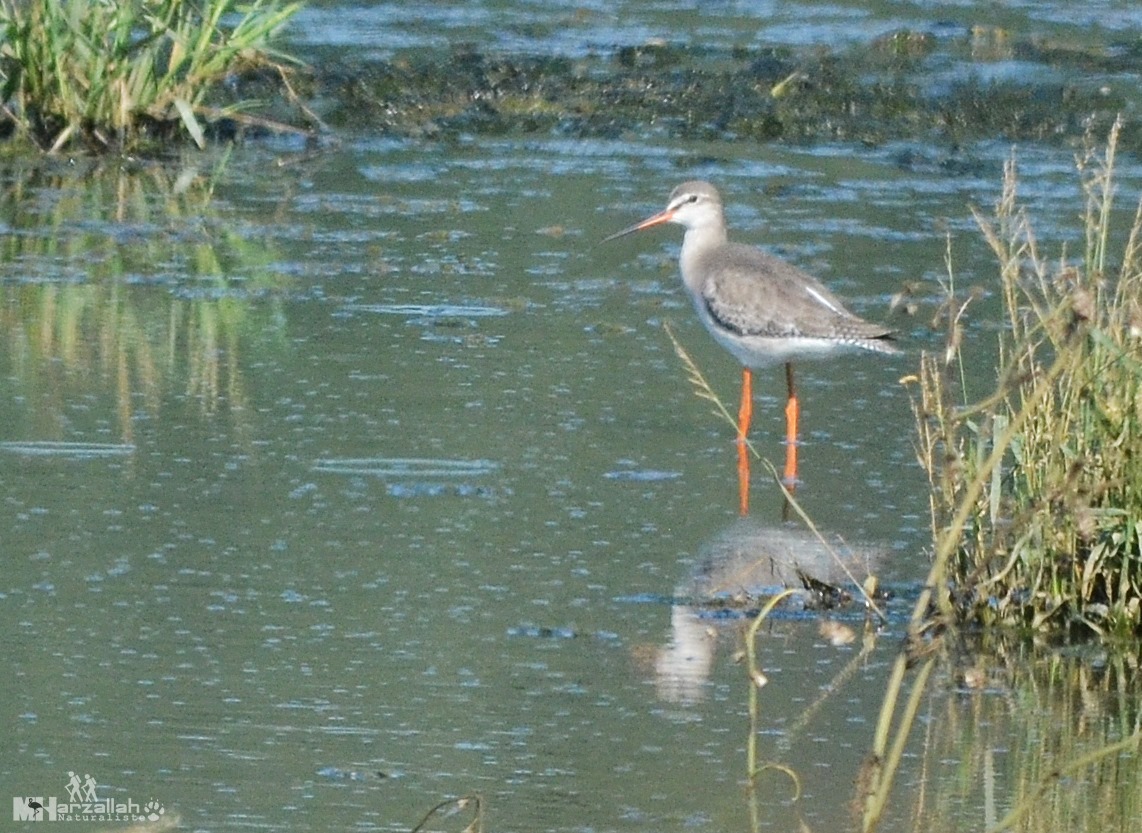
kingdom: Animalia
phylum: Chordata
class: Aves
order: Charadriiformes
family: Scolopacidae
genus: Tringa
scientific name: Tringa erythropus
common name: Spotted redshank
